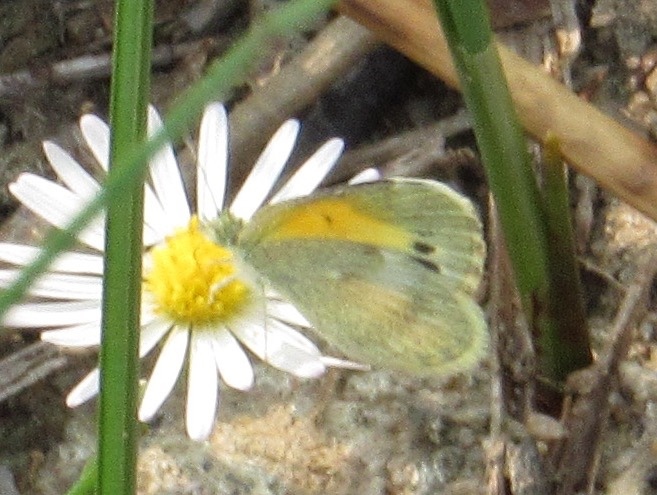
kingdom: Animalia
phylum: Arthropoda
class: Insecta
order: Lepidoptera
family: Pieridae
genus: Nathalis
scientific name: Nathalis iole
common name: Dainty sulphur
